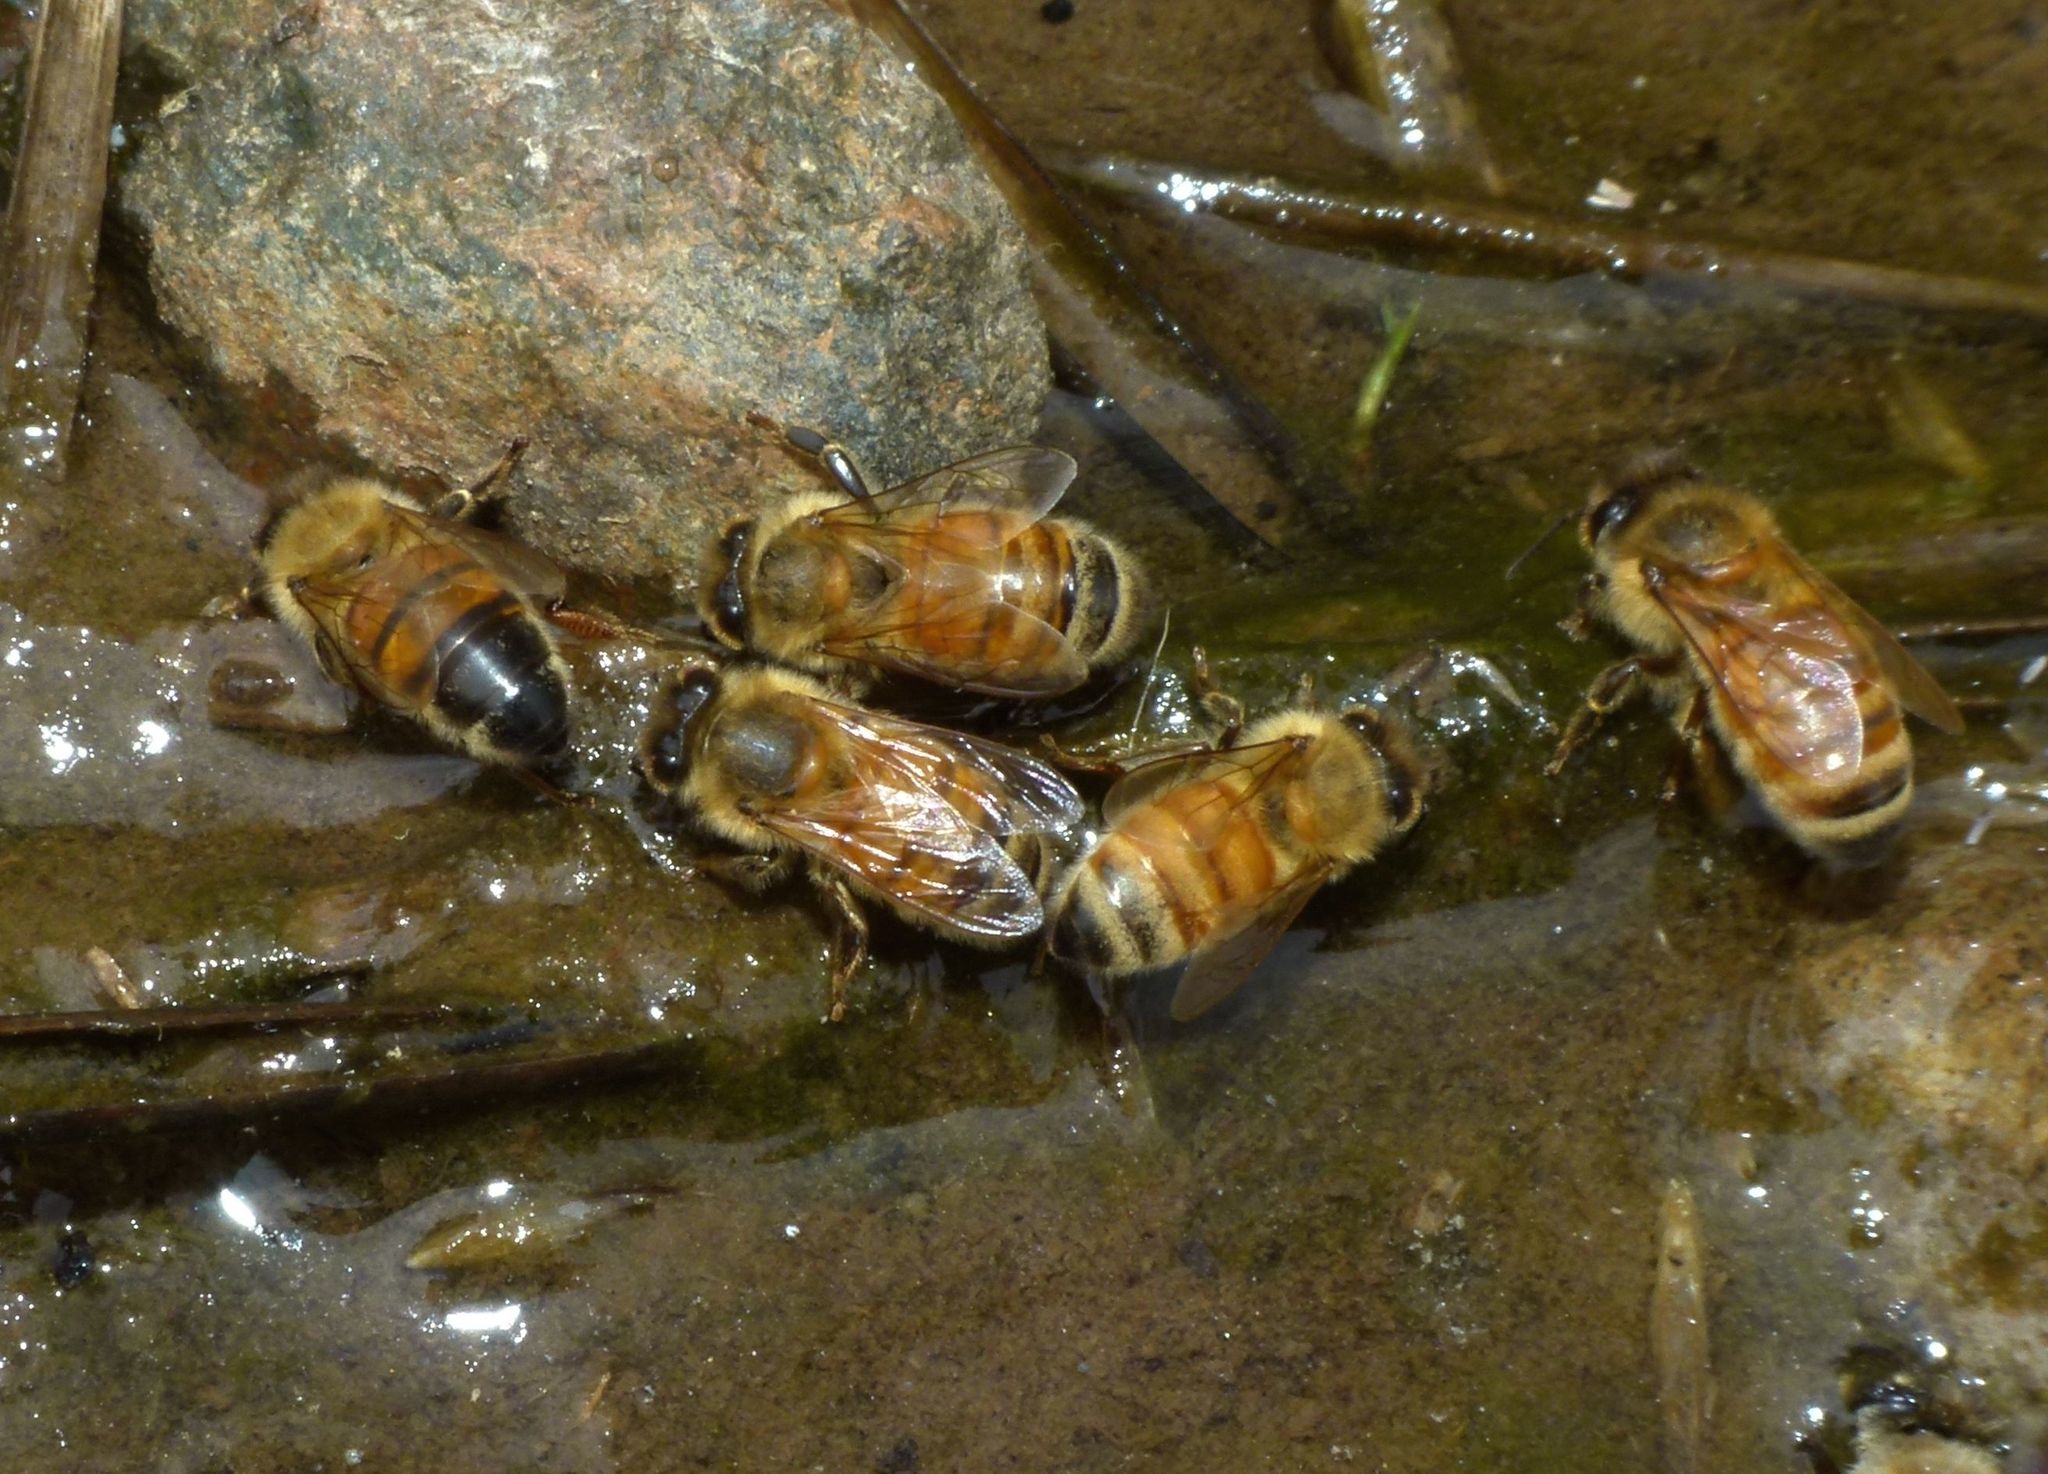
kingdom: Animalia
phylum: Arthropoda
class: Insecta
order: Hymenoptera
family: Apidae
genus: Apis
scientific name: Apis mellifera
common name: Honey bee
